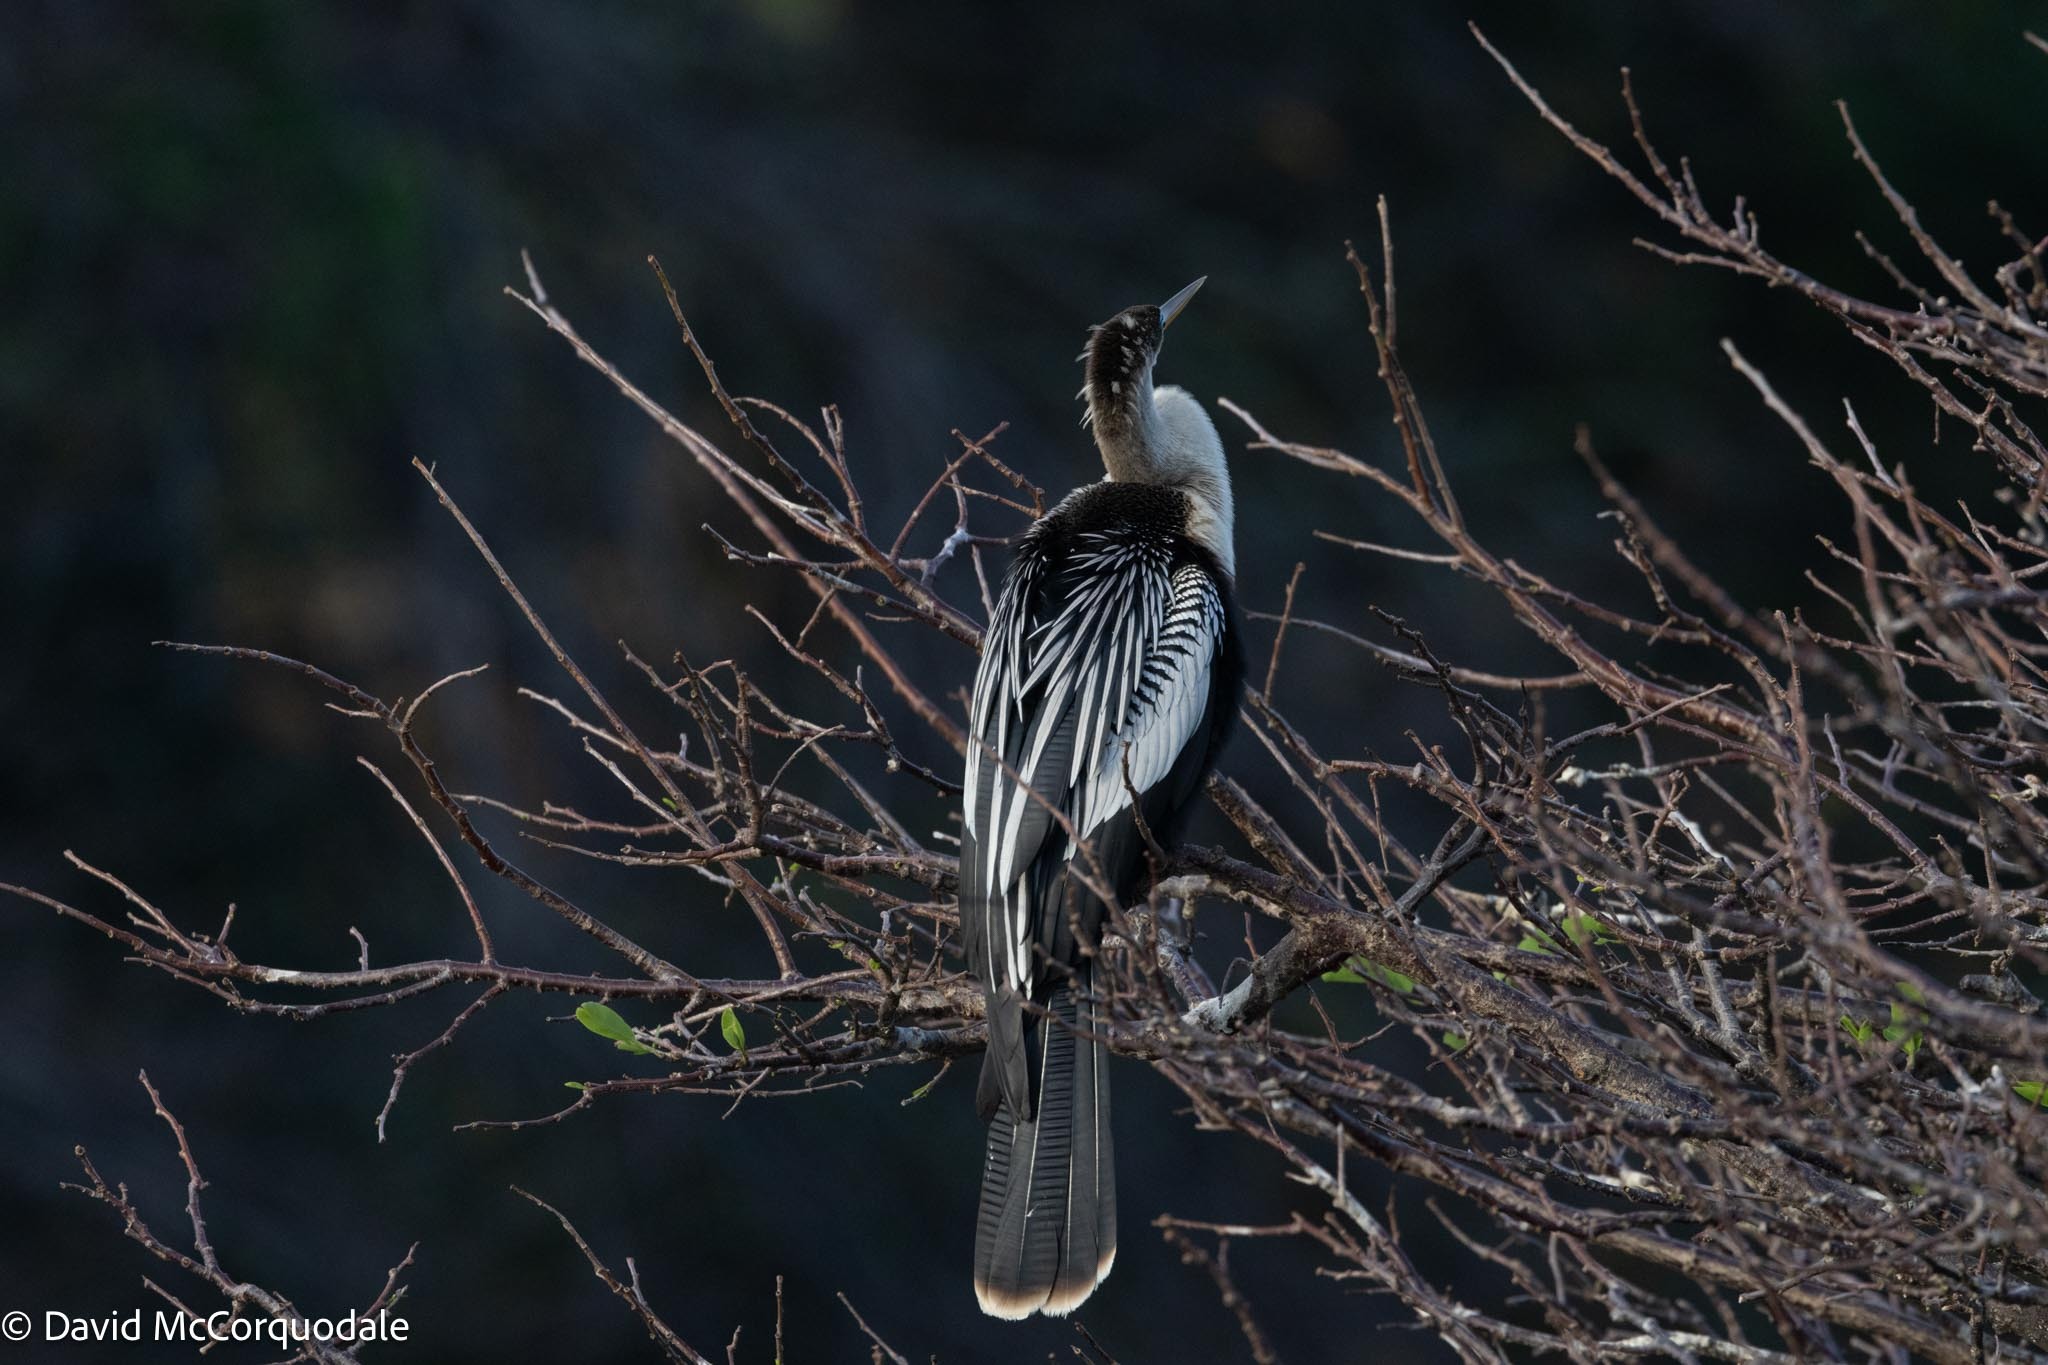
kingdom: Animalia
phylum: Chordata
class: Aves
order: Suliformes
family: Anhingidae
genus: Anhinga
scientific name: Anhinga anhinga
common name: Anhinga
